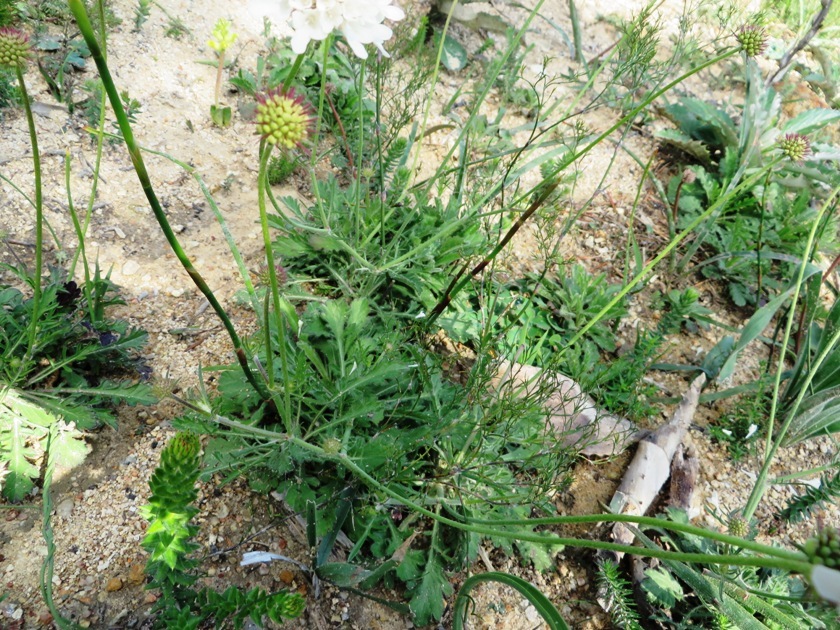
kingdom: Plantae
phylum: Tracheophyta
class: Magnoliopsida
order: Dipsacales
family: Caprifoliaceae
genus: Scabiosa
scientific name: Scabiosa columbaria
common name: Small scabious
